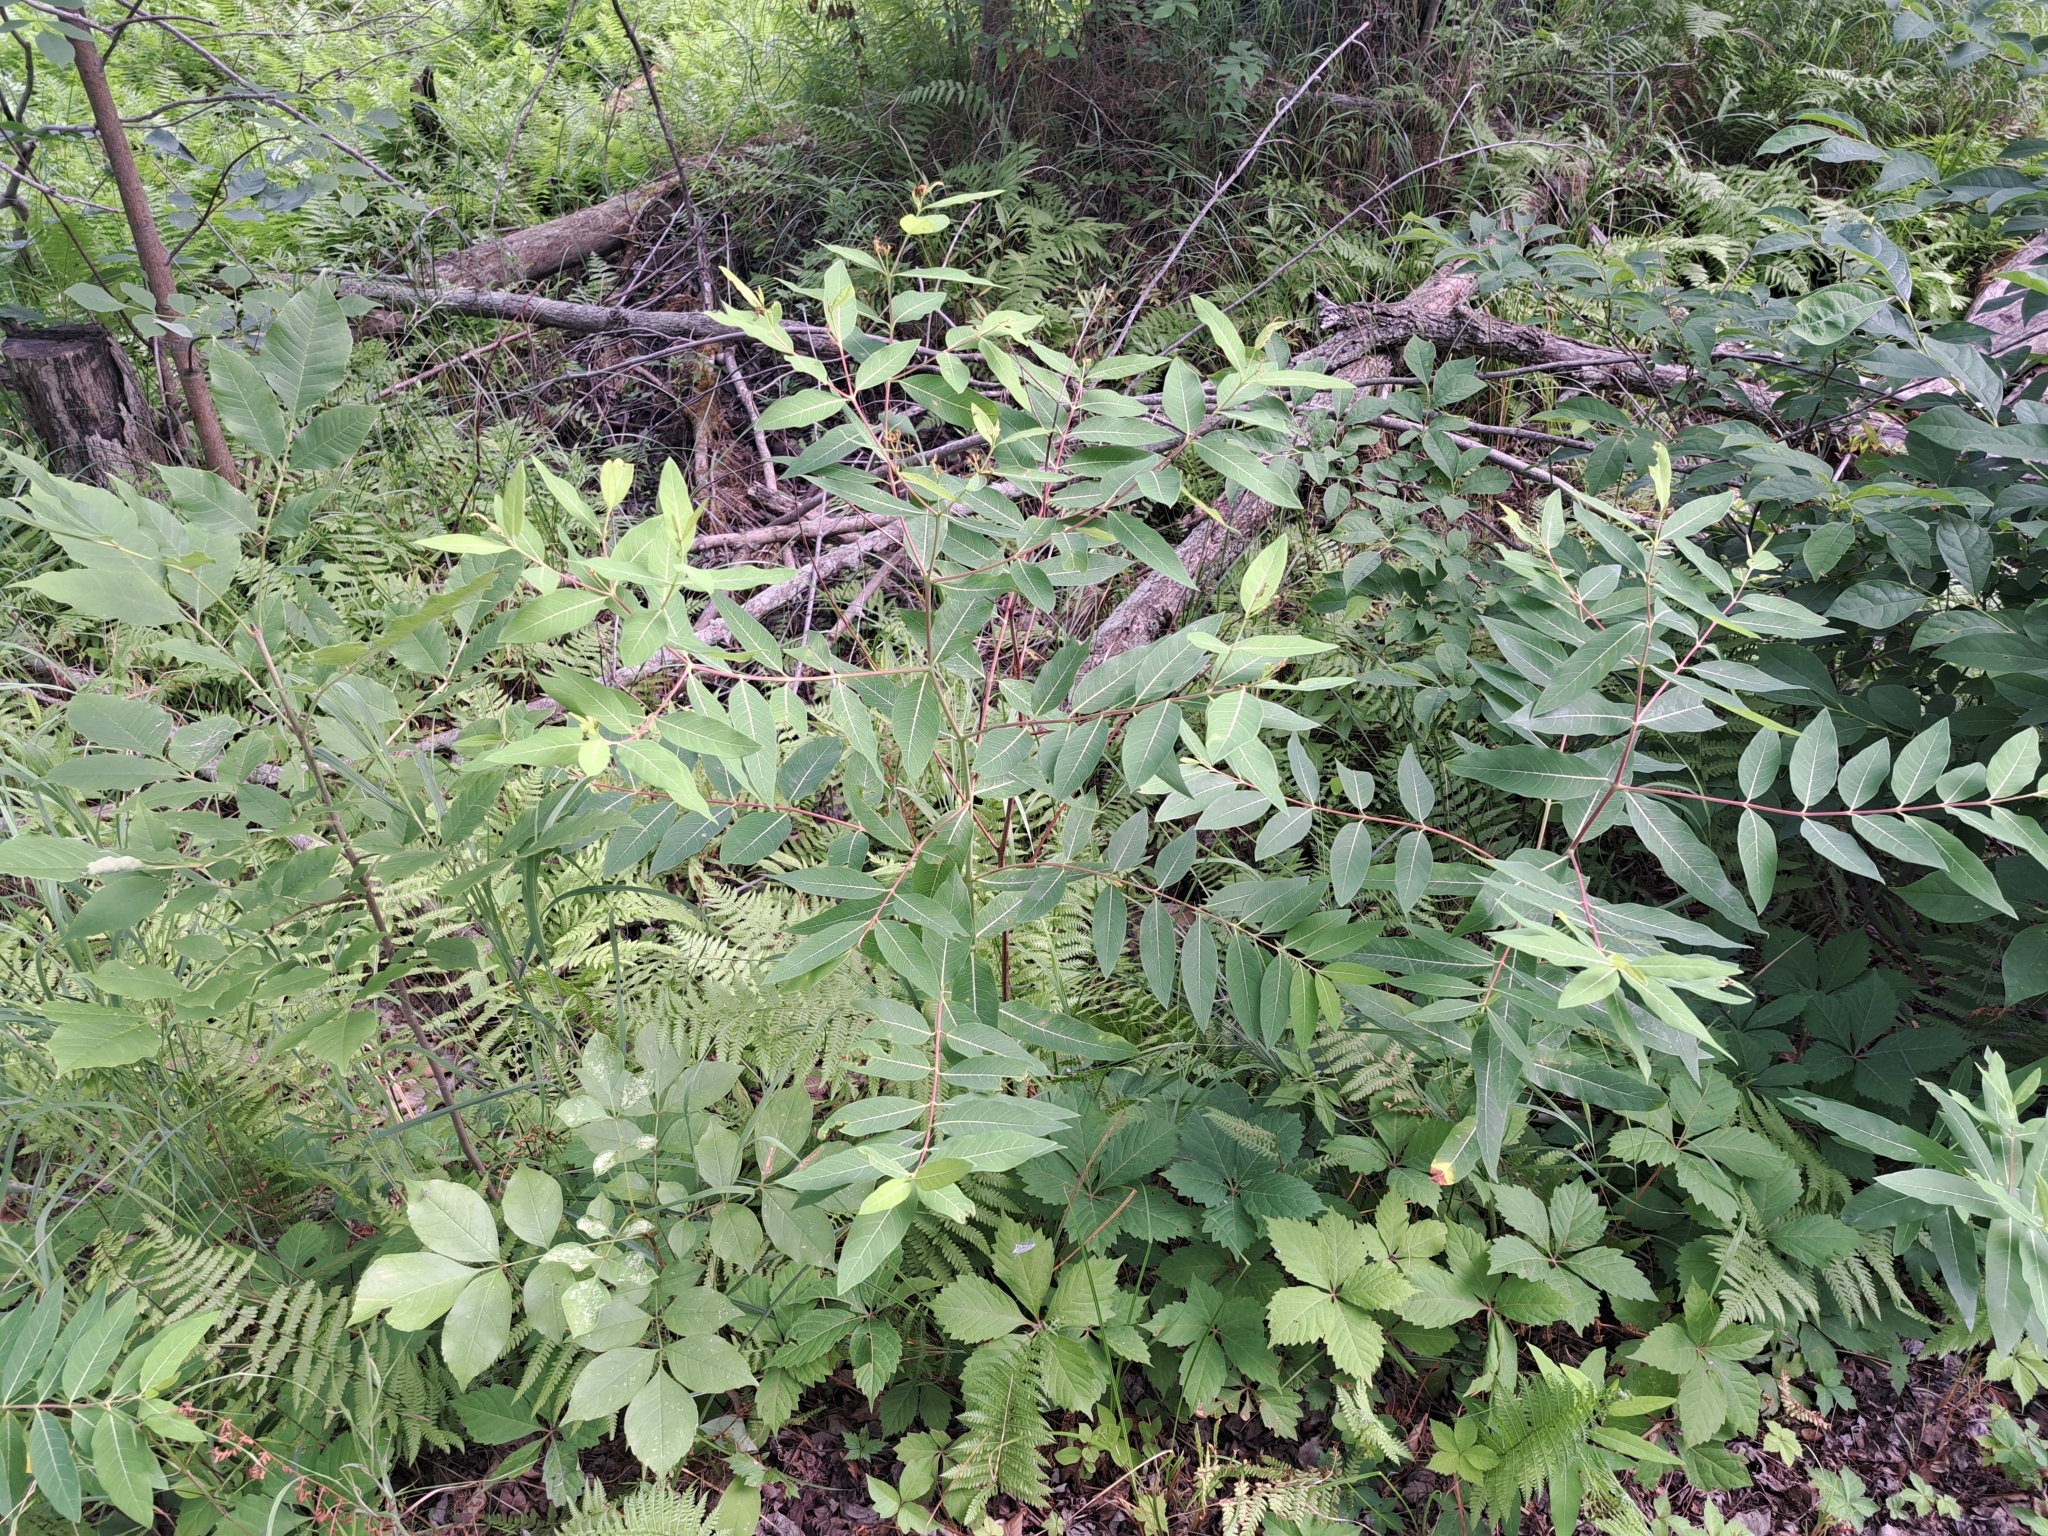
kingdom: Plantae
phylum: Tracheophyta
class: Magnoliopsida
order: Gentianales
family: Apocynaceae
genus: Apocynum
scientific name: Apocynum cannabinum
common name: Hemp dogbane
